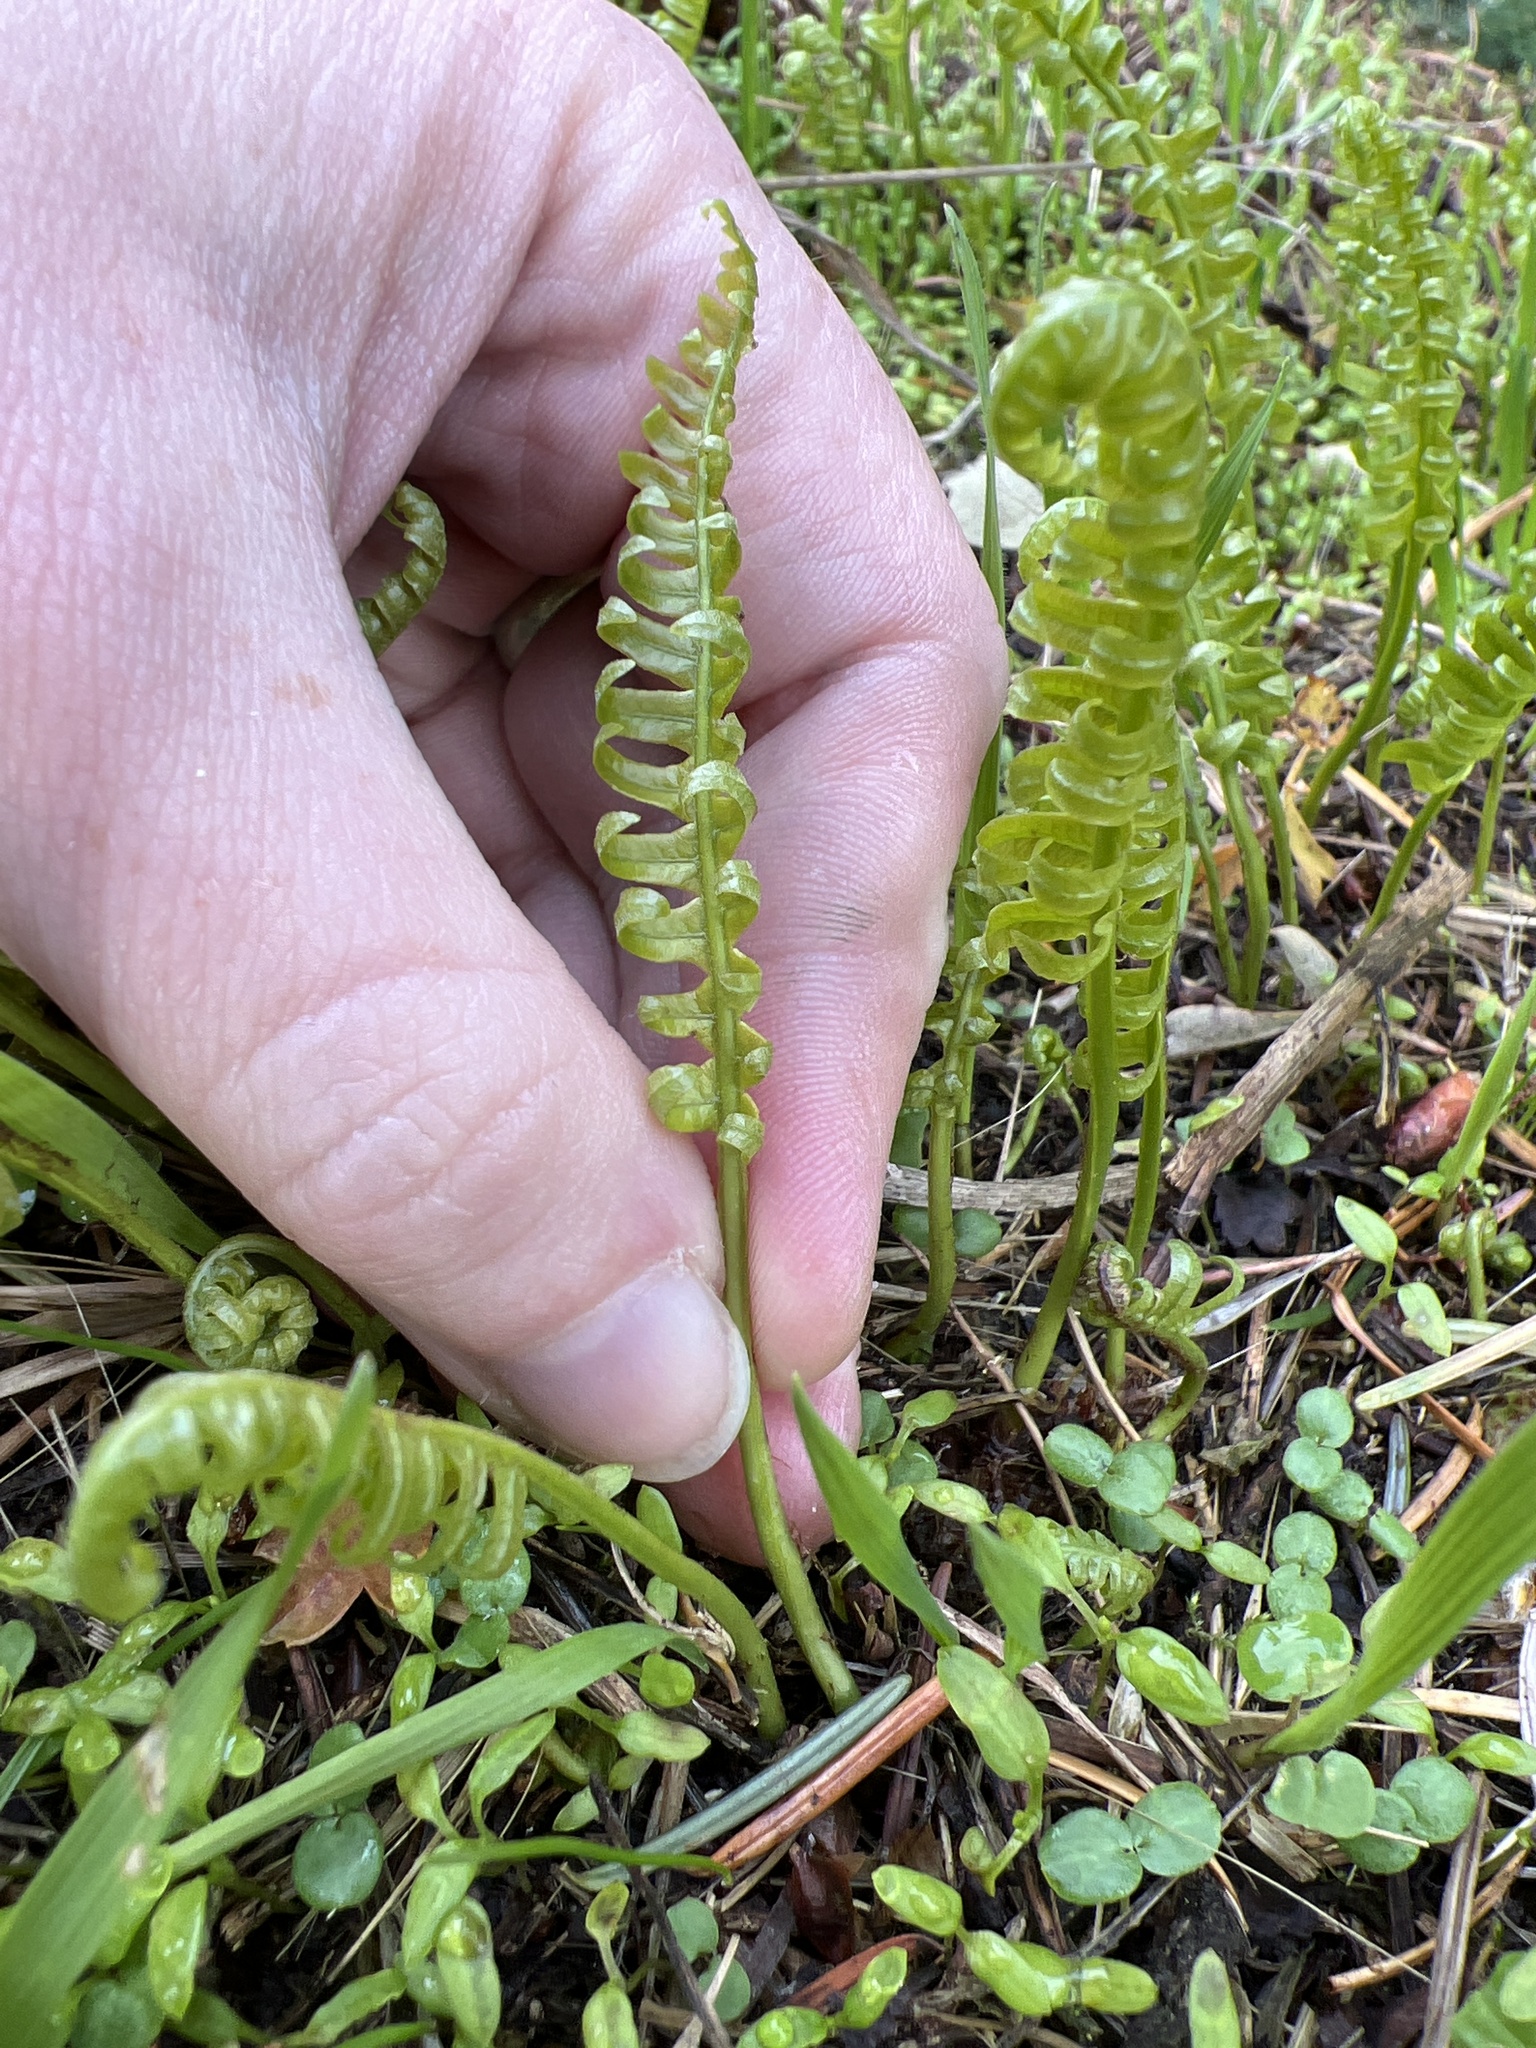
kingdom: Plantae
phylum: Tracheophyta
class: Polypodiopsida
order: Polypodiales
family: Polypodiaceae
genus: Polypodium
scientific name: Polypodium glycyrrhiza
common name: Licorice fern
